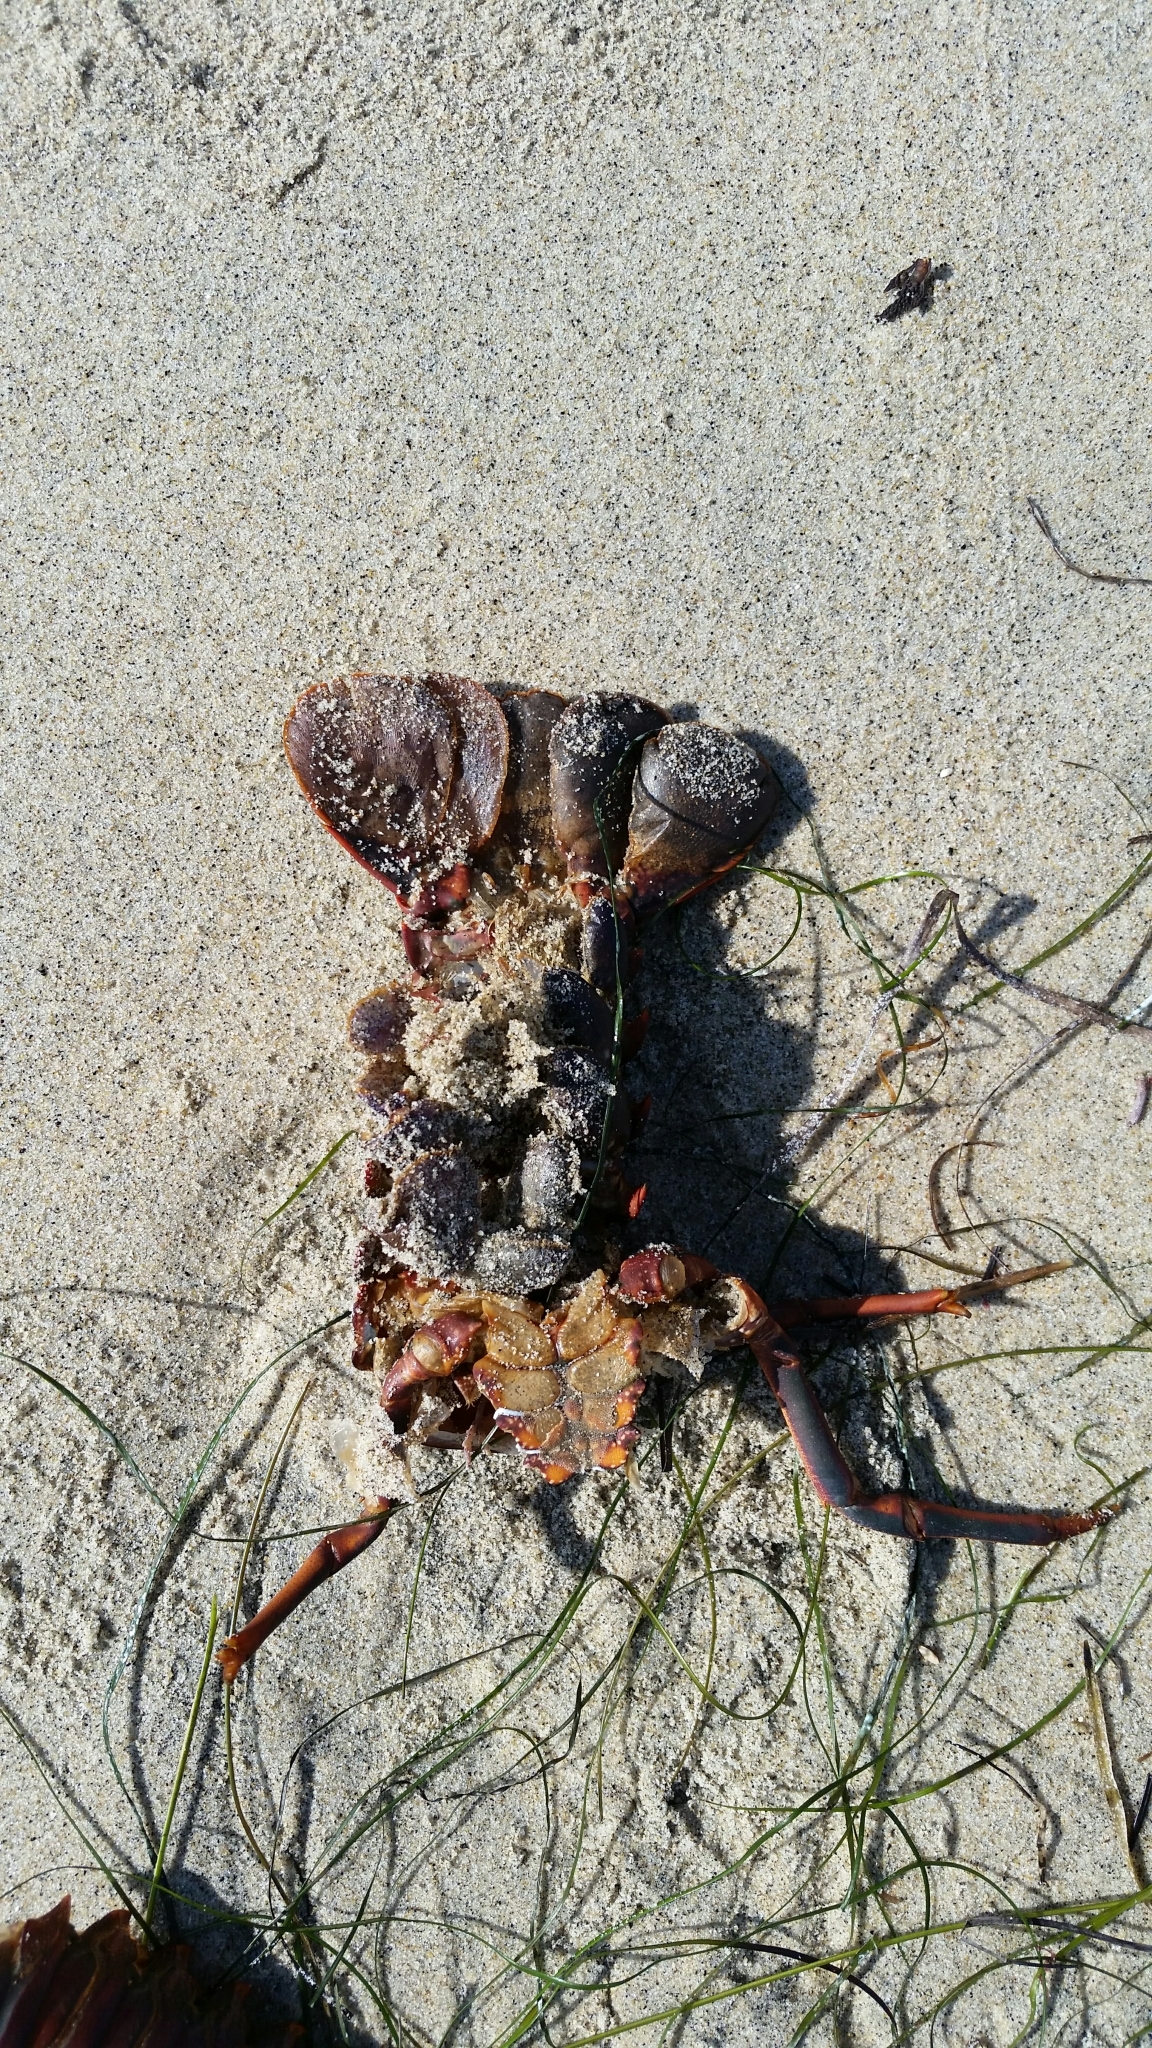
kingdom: Animalia
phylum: Arthropoda
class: Malacostraca
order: Decapoda
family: Palinuridae
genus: Panulirus
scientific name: Panulirus interruptus
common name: California spiny lobster
